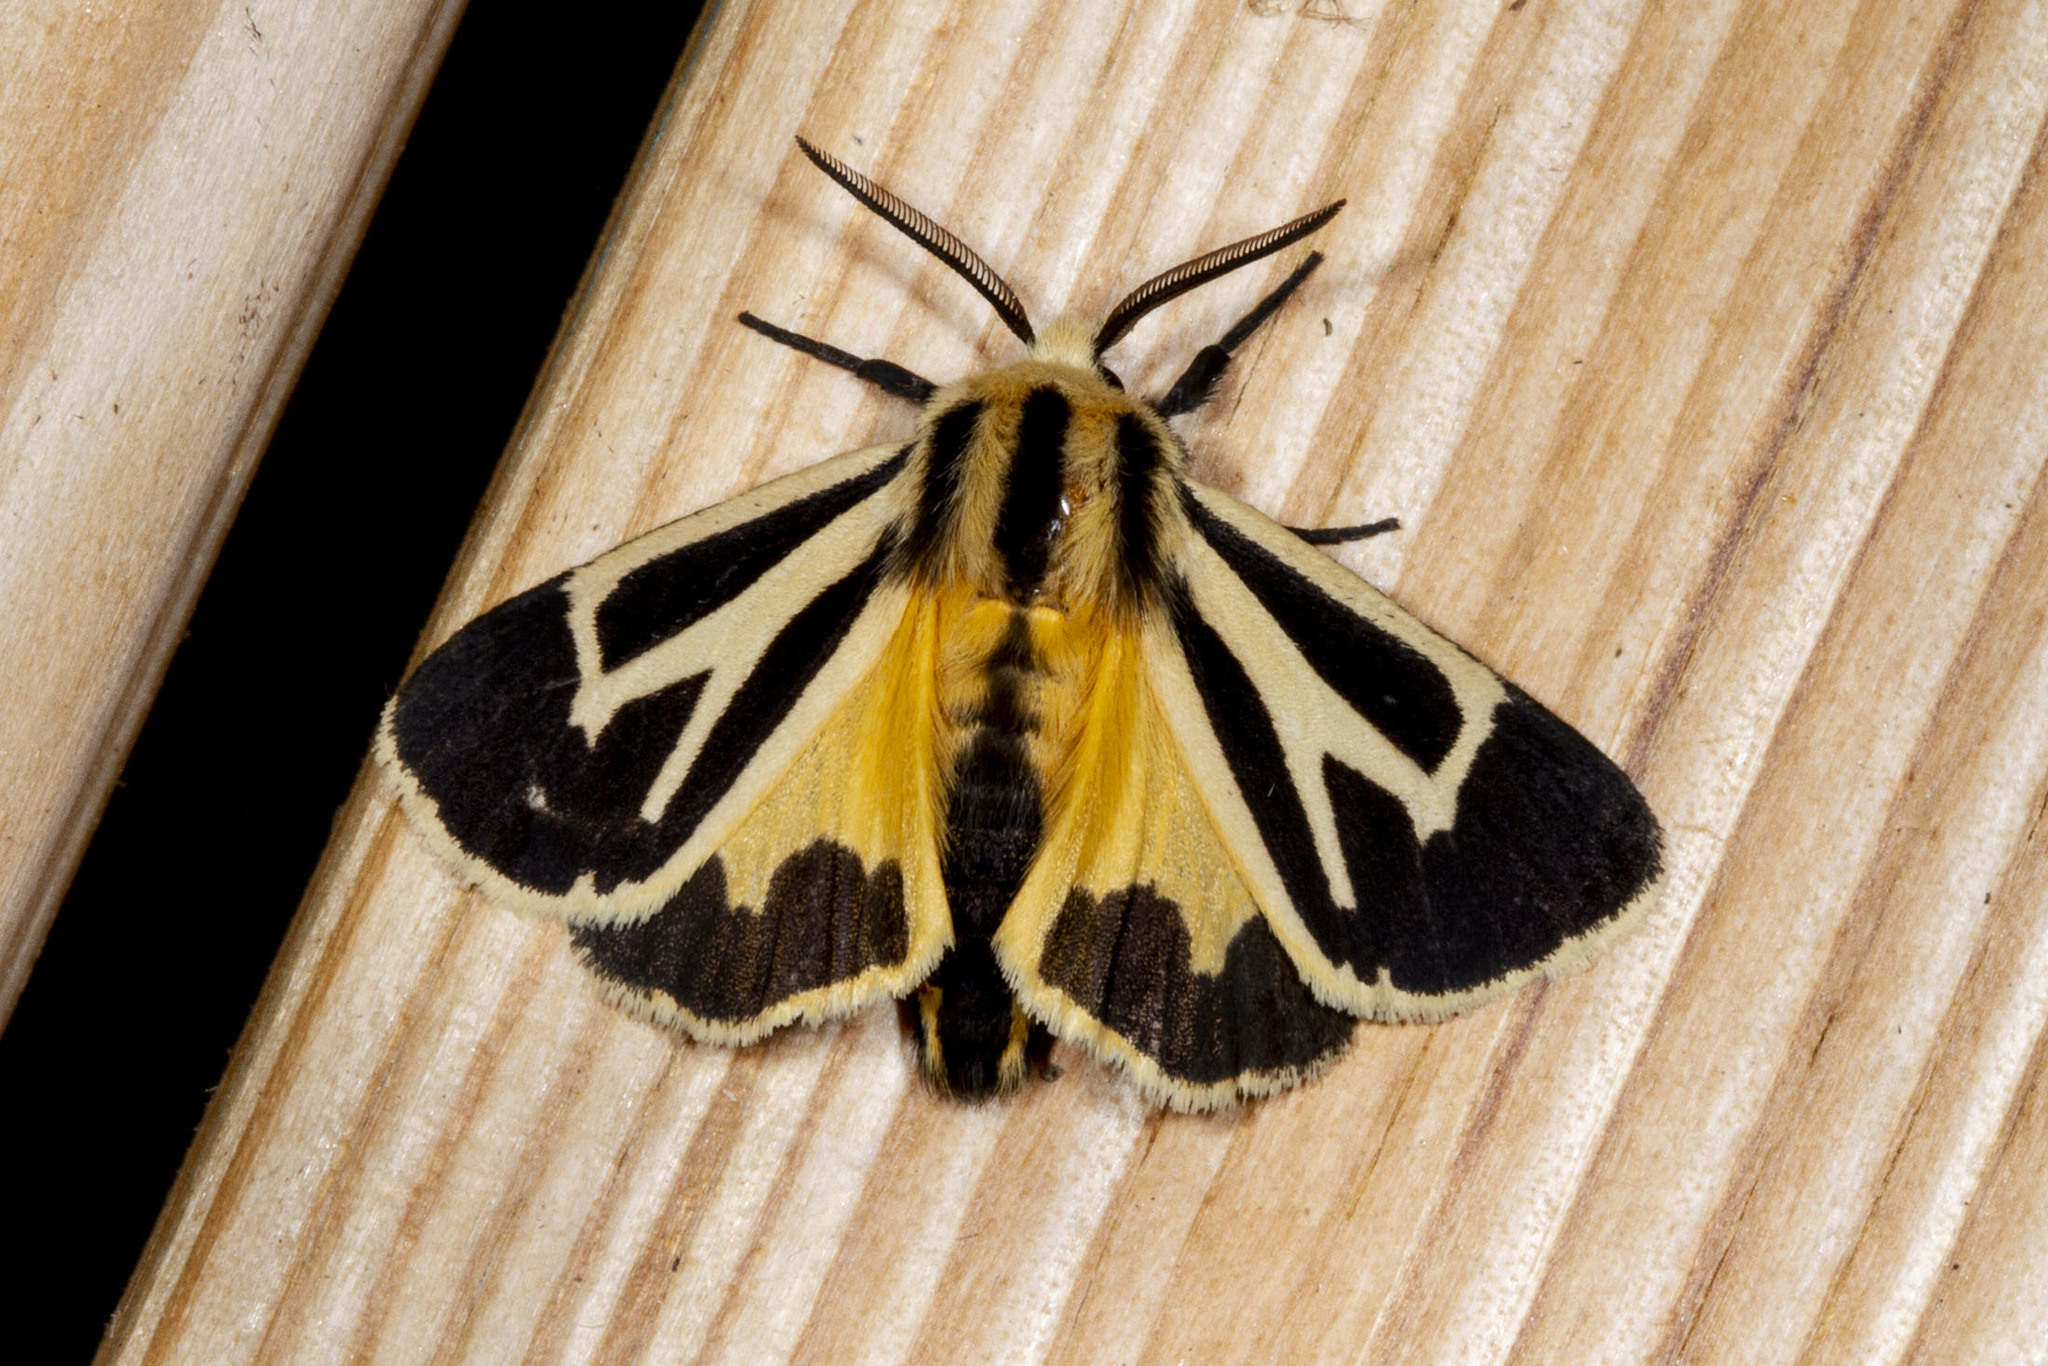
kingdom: Animalia
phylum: Arthropoda
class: Insecta
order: Lepidoptera
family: Erebidae
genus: Apantesis
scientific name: Apantesis nais
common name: Nais tiger moth
